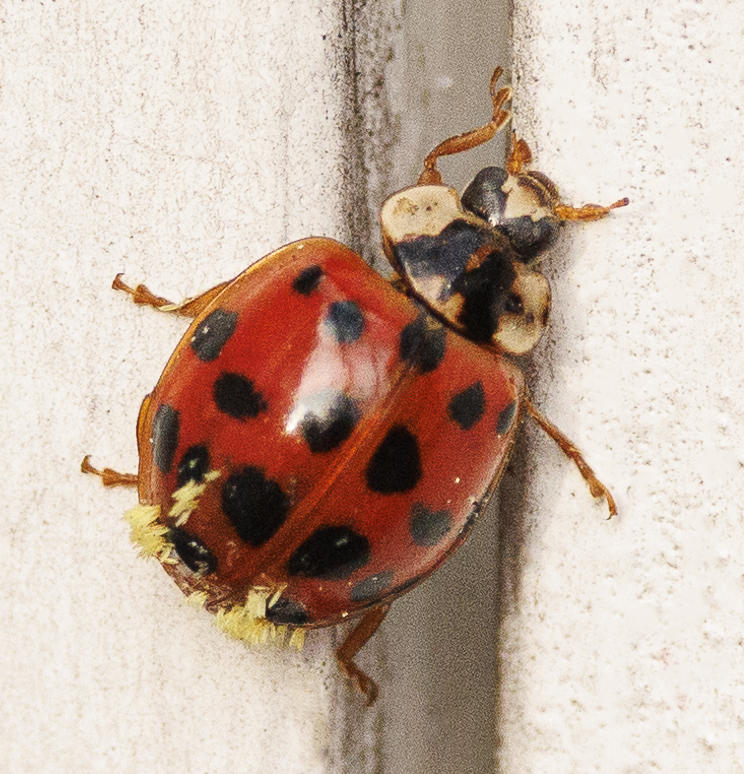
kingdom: Fungi
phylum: Ascomycota
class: Laboulbeniomycetes
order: Laboulbeniales
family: Laboulbeniaceae
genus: Hesperomyces
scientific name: Hesperomyces harmoniae
